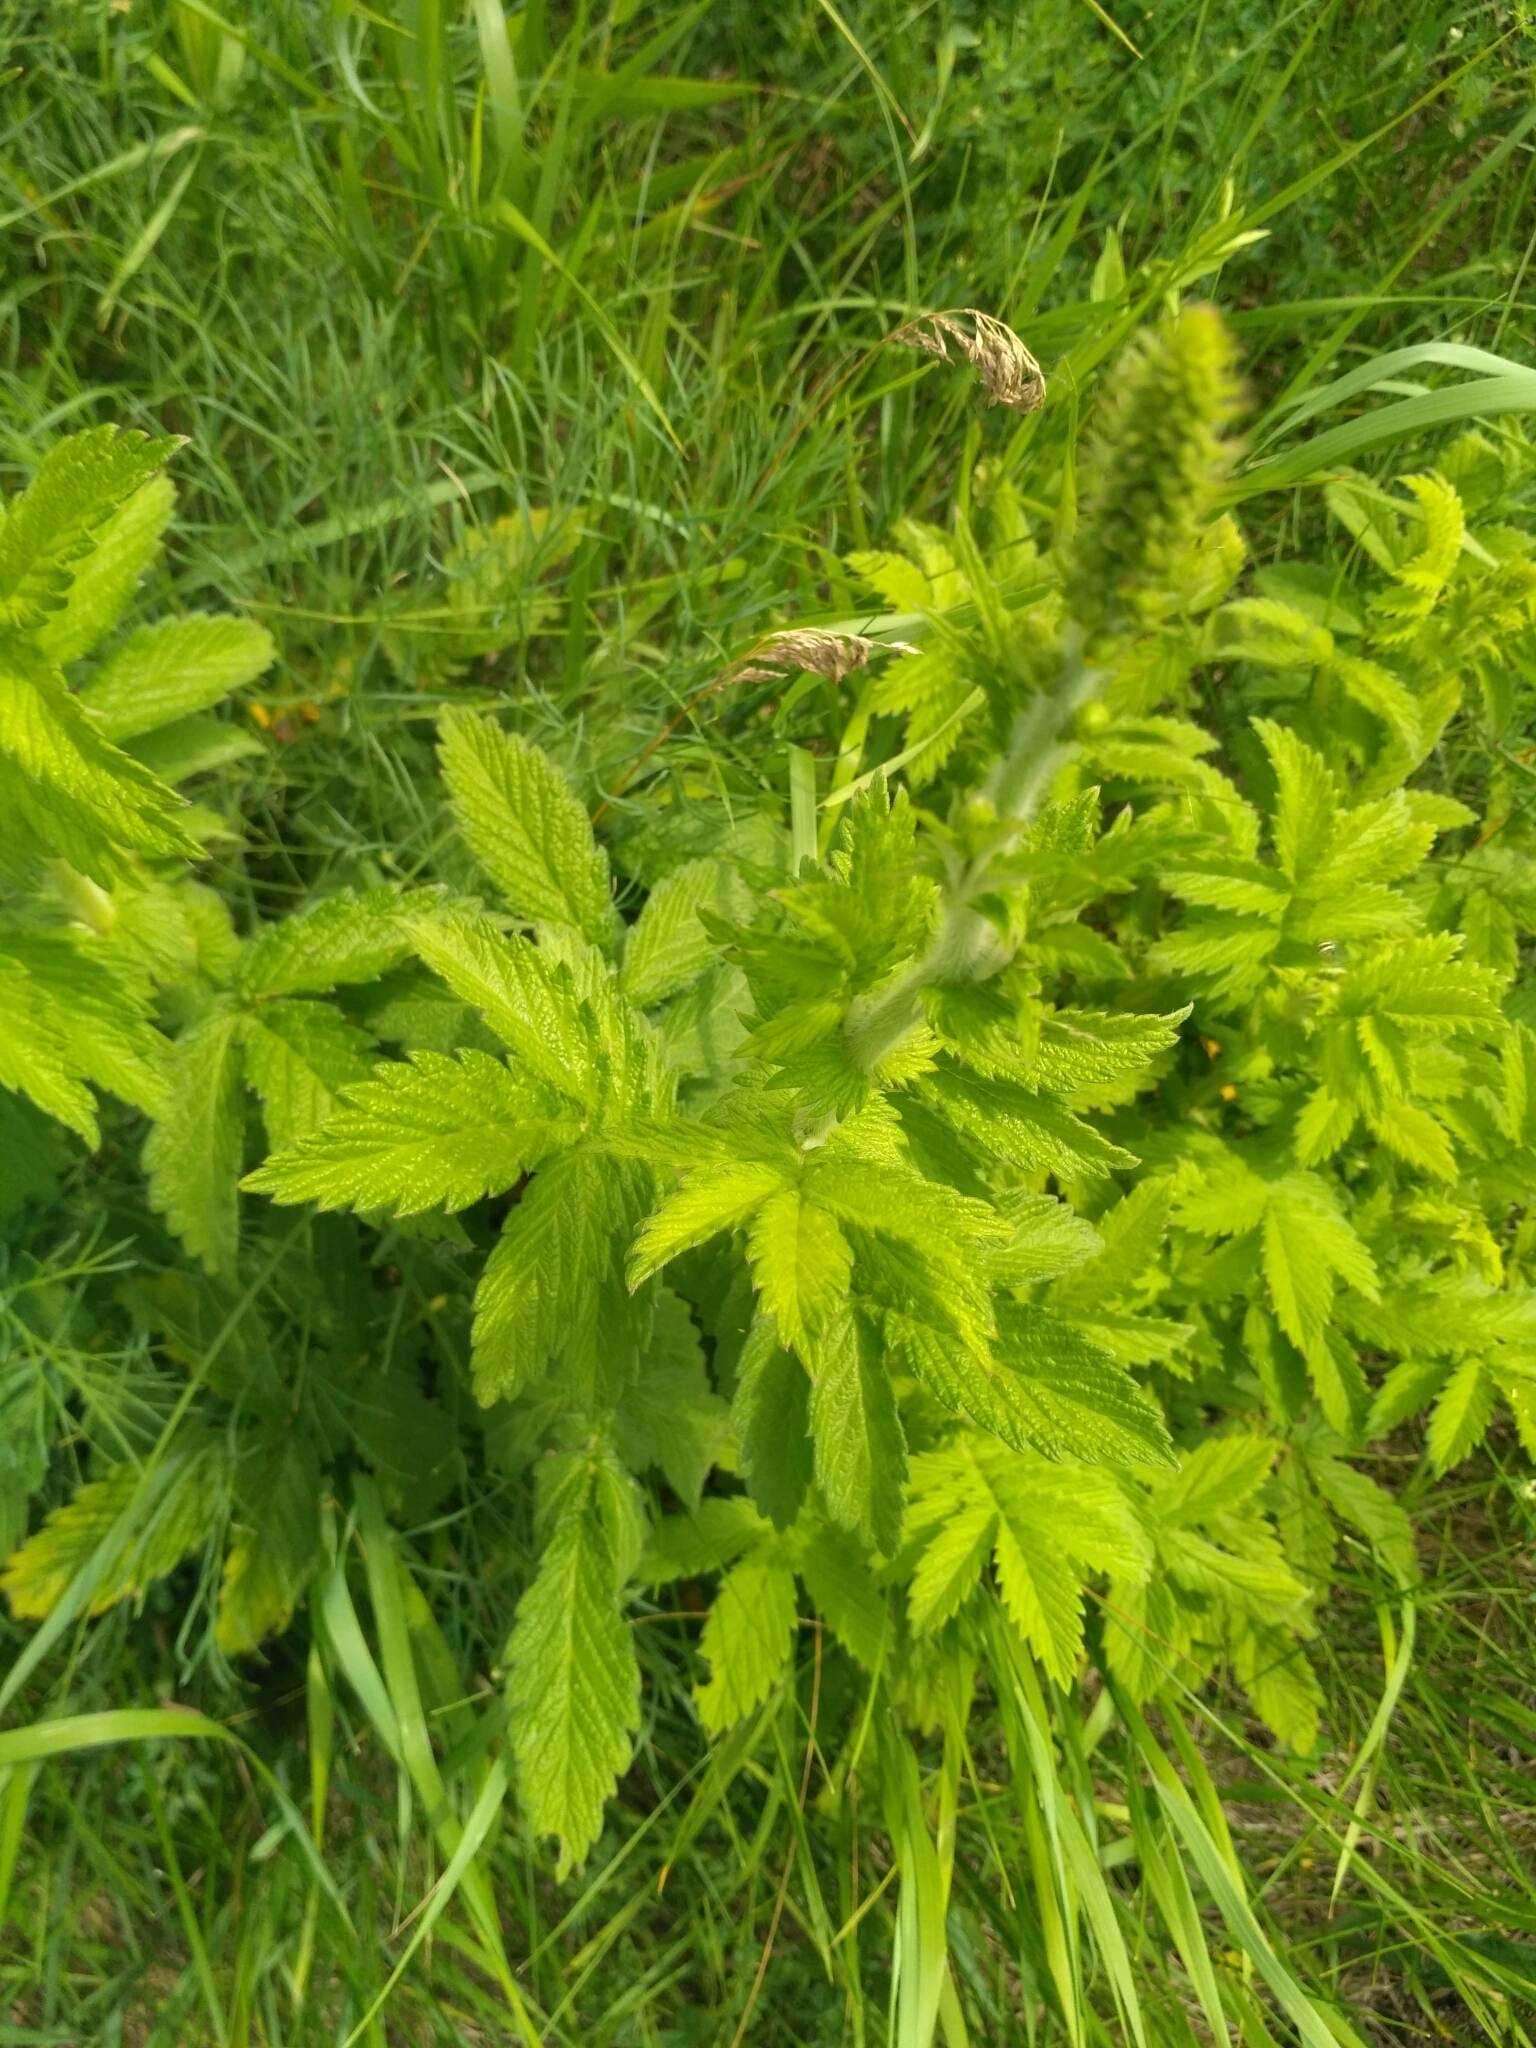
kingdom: Plantae
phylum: Tracheophyta
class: Magnoliopsida
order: Rosales
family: Rosaceae
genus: Agrimonia
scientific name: Agrimonia eupatoria
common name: Agrimony
